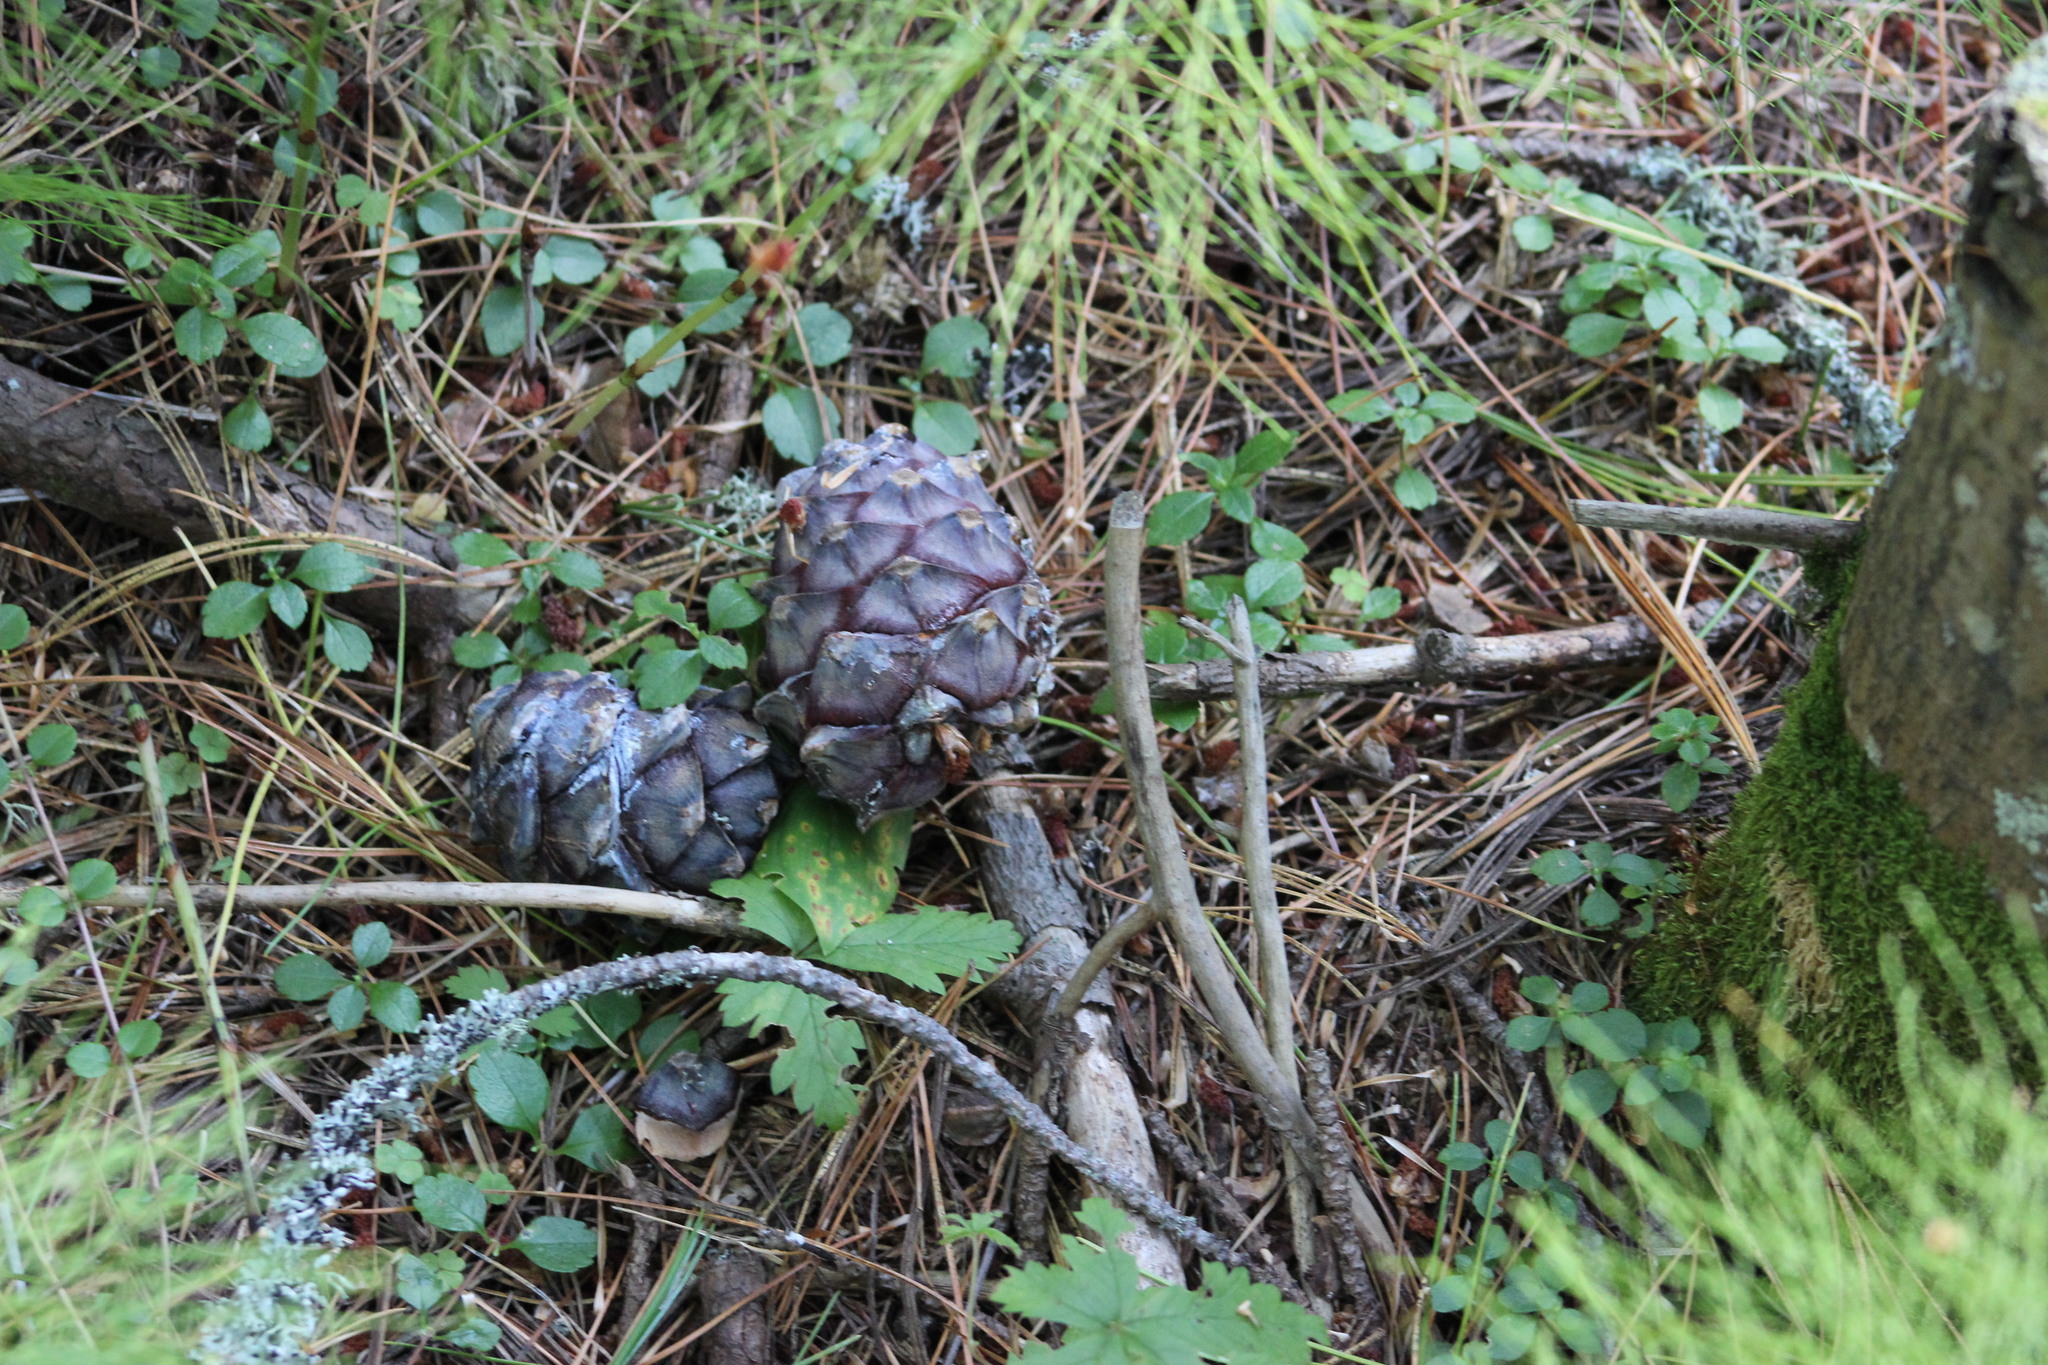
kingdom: Plantae
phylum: Tracheophyta
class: Pinopsida
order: Pinales
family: Pinaceae
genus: Pinus
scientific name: Pinus sibirica
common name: Siberian pine
